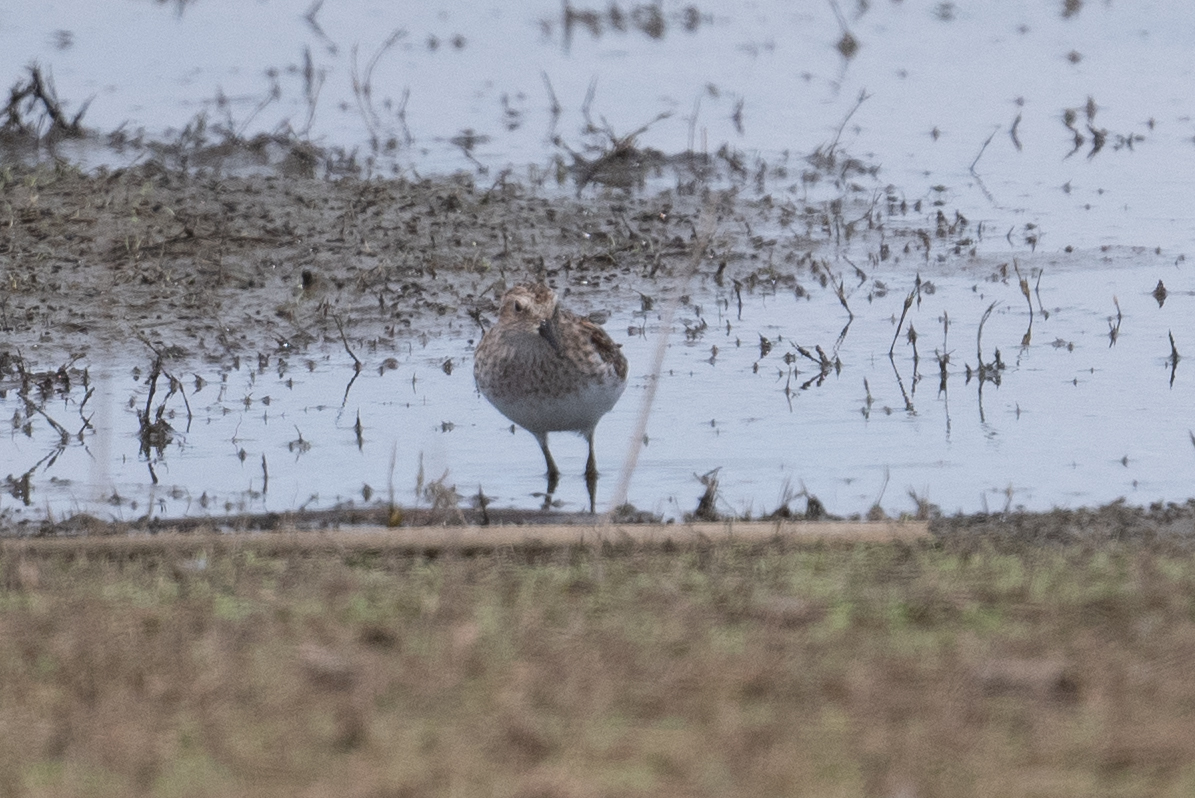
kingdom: Animalia
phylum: Chordata
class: Aves
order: Charadriiformes
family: Scolopacidae
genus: Calidris
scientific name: Calidris minutilla
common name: Least sandpiper
